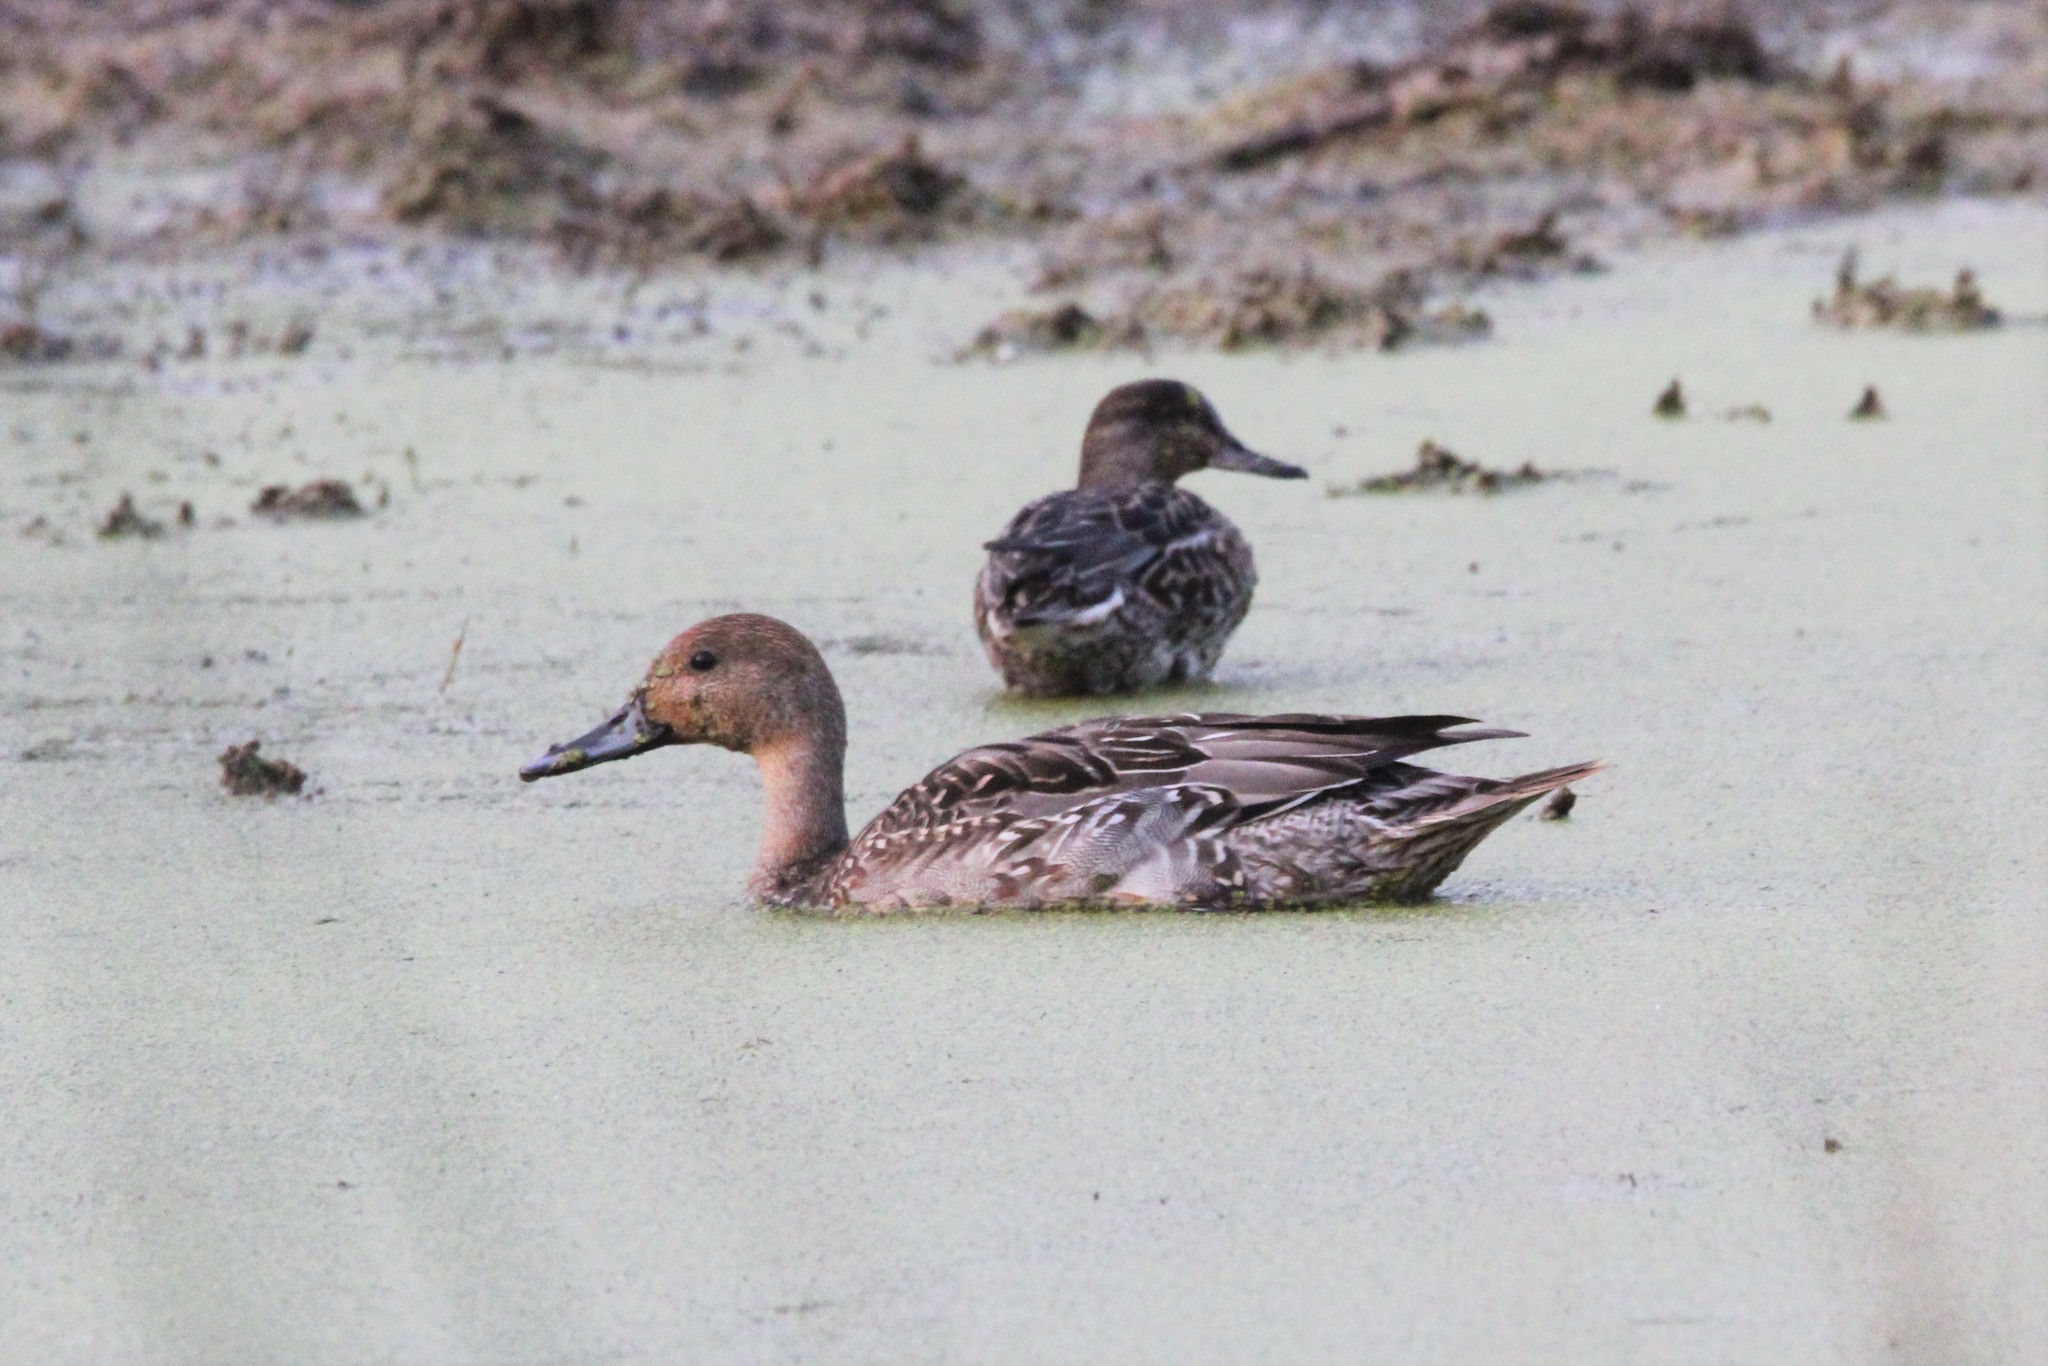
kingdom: Animalia
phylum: Chordata
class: Aves
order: Anseriformes
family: Anatidae
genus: Anas
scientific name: Anas acuta
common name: Northern pintail
